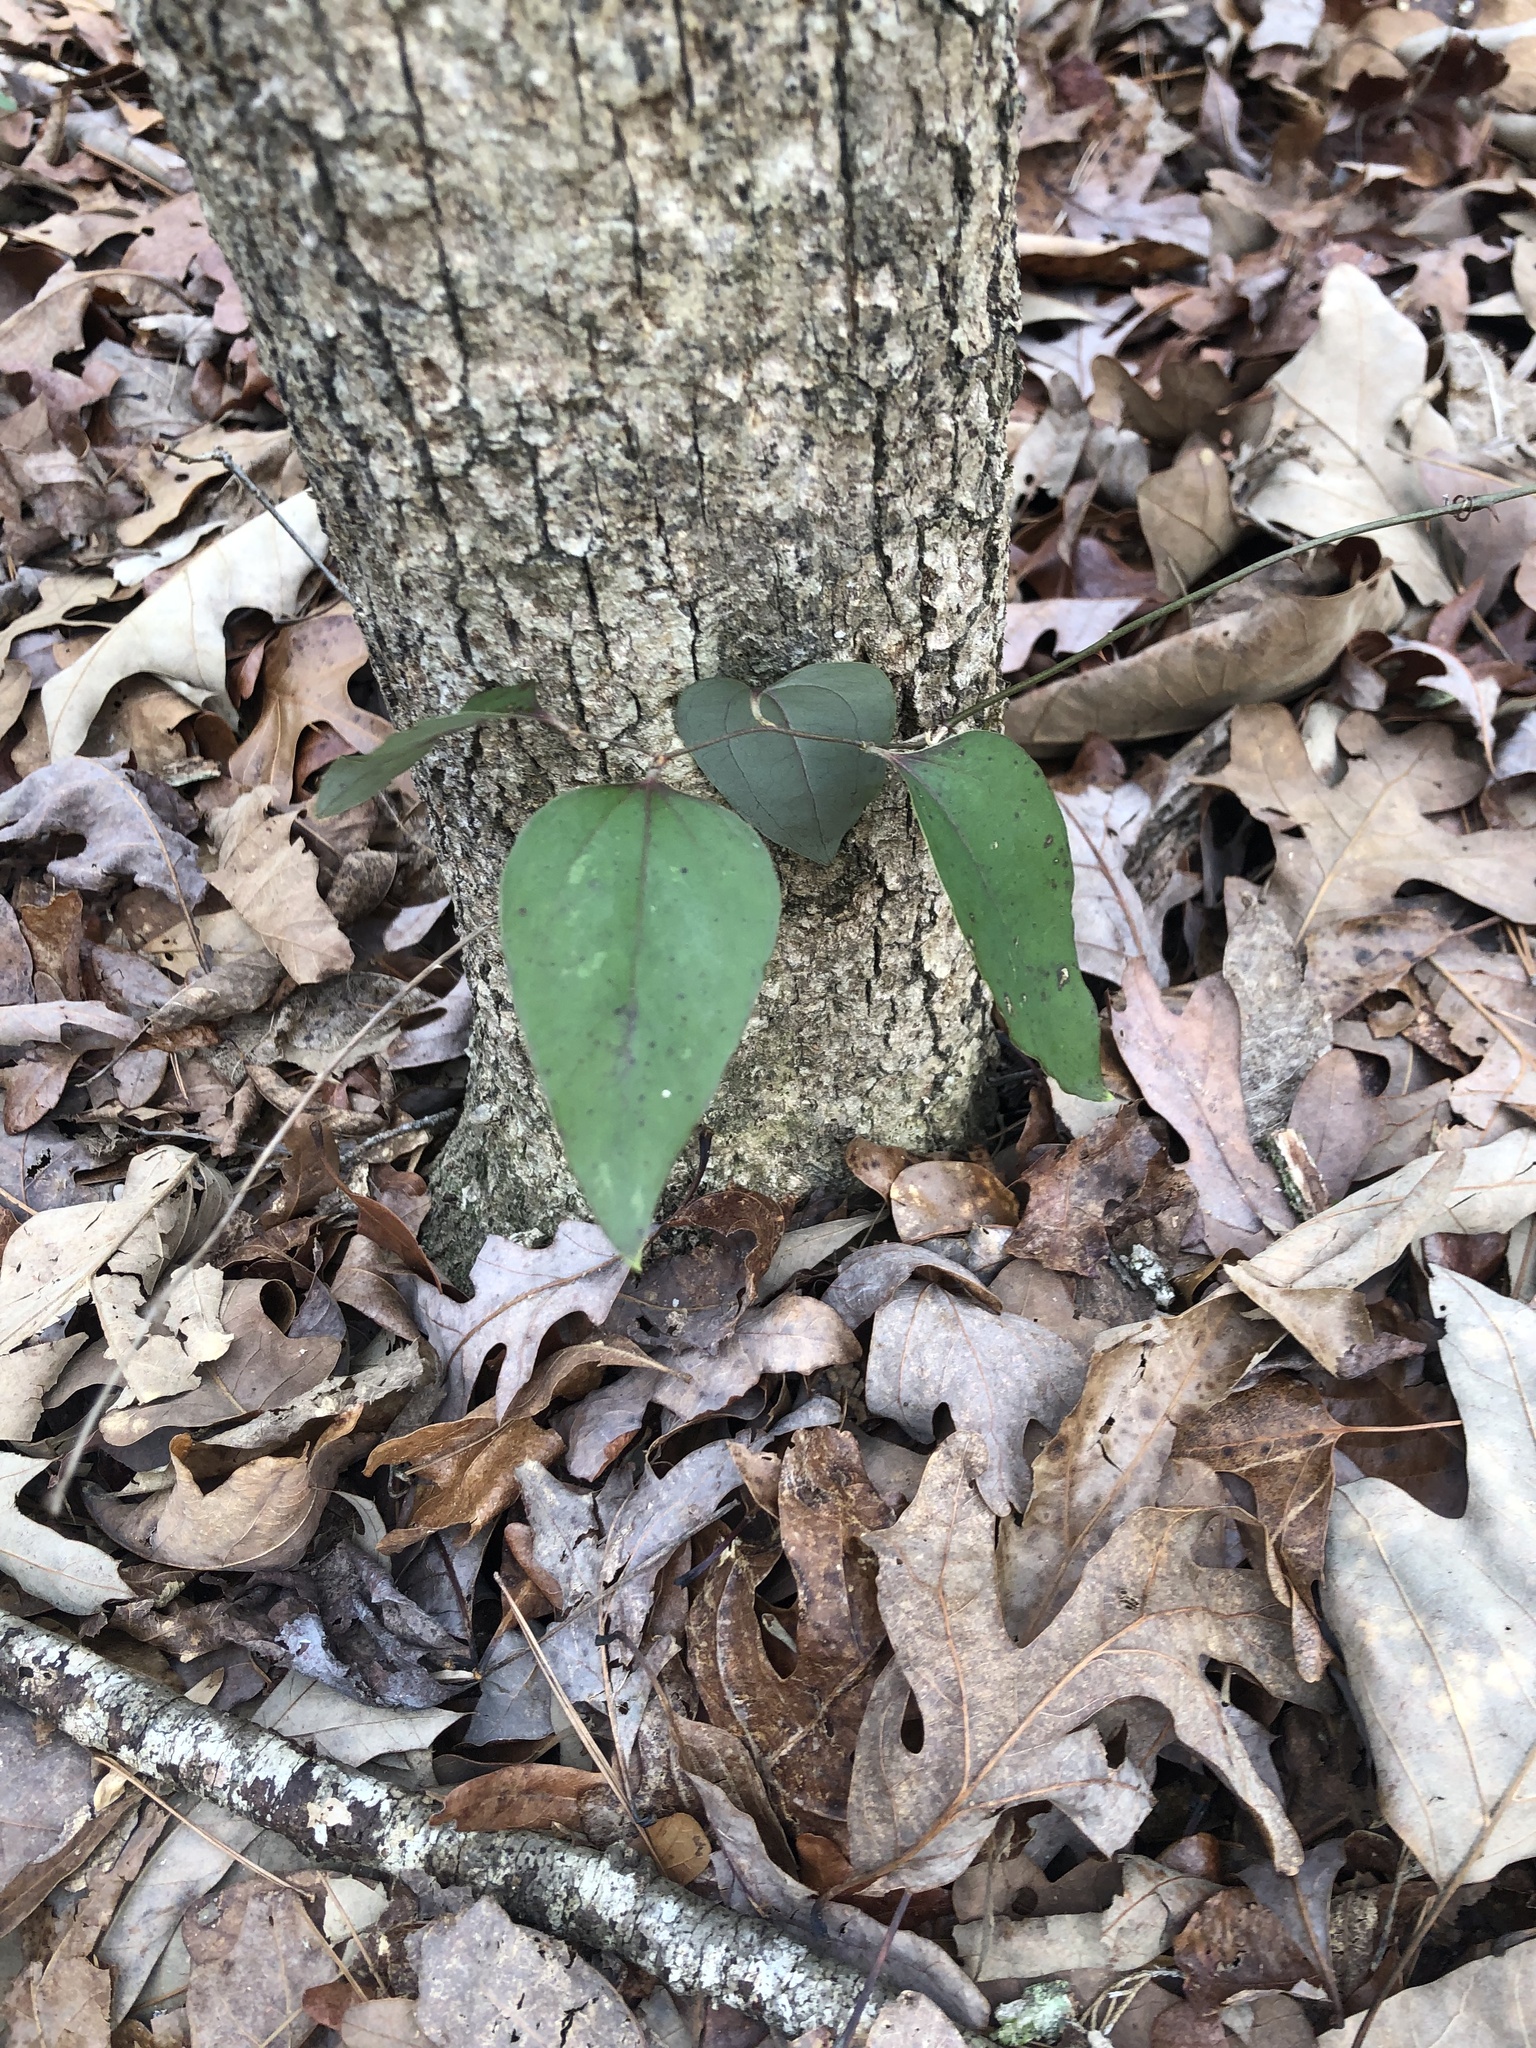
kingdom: Plantae
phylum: Tracheophyta
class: Liliopsida
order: Liliales
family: Smilacaceae
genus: Smilax
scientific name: Smilax glauca
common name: Cat greenbrier
